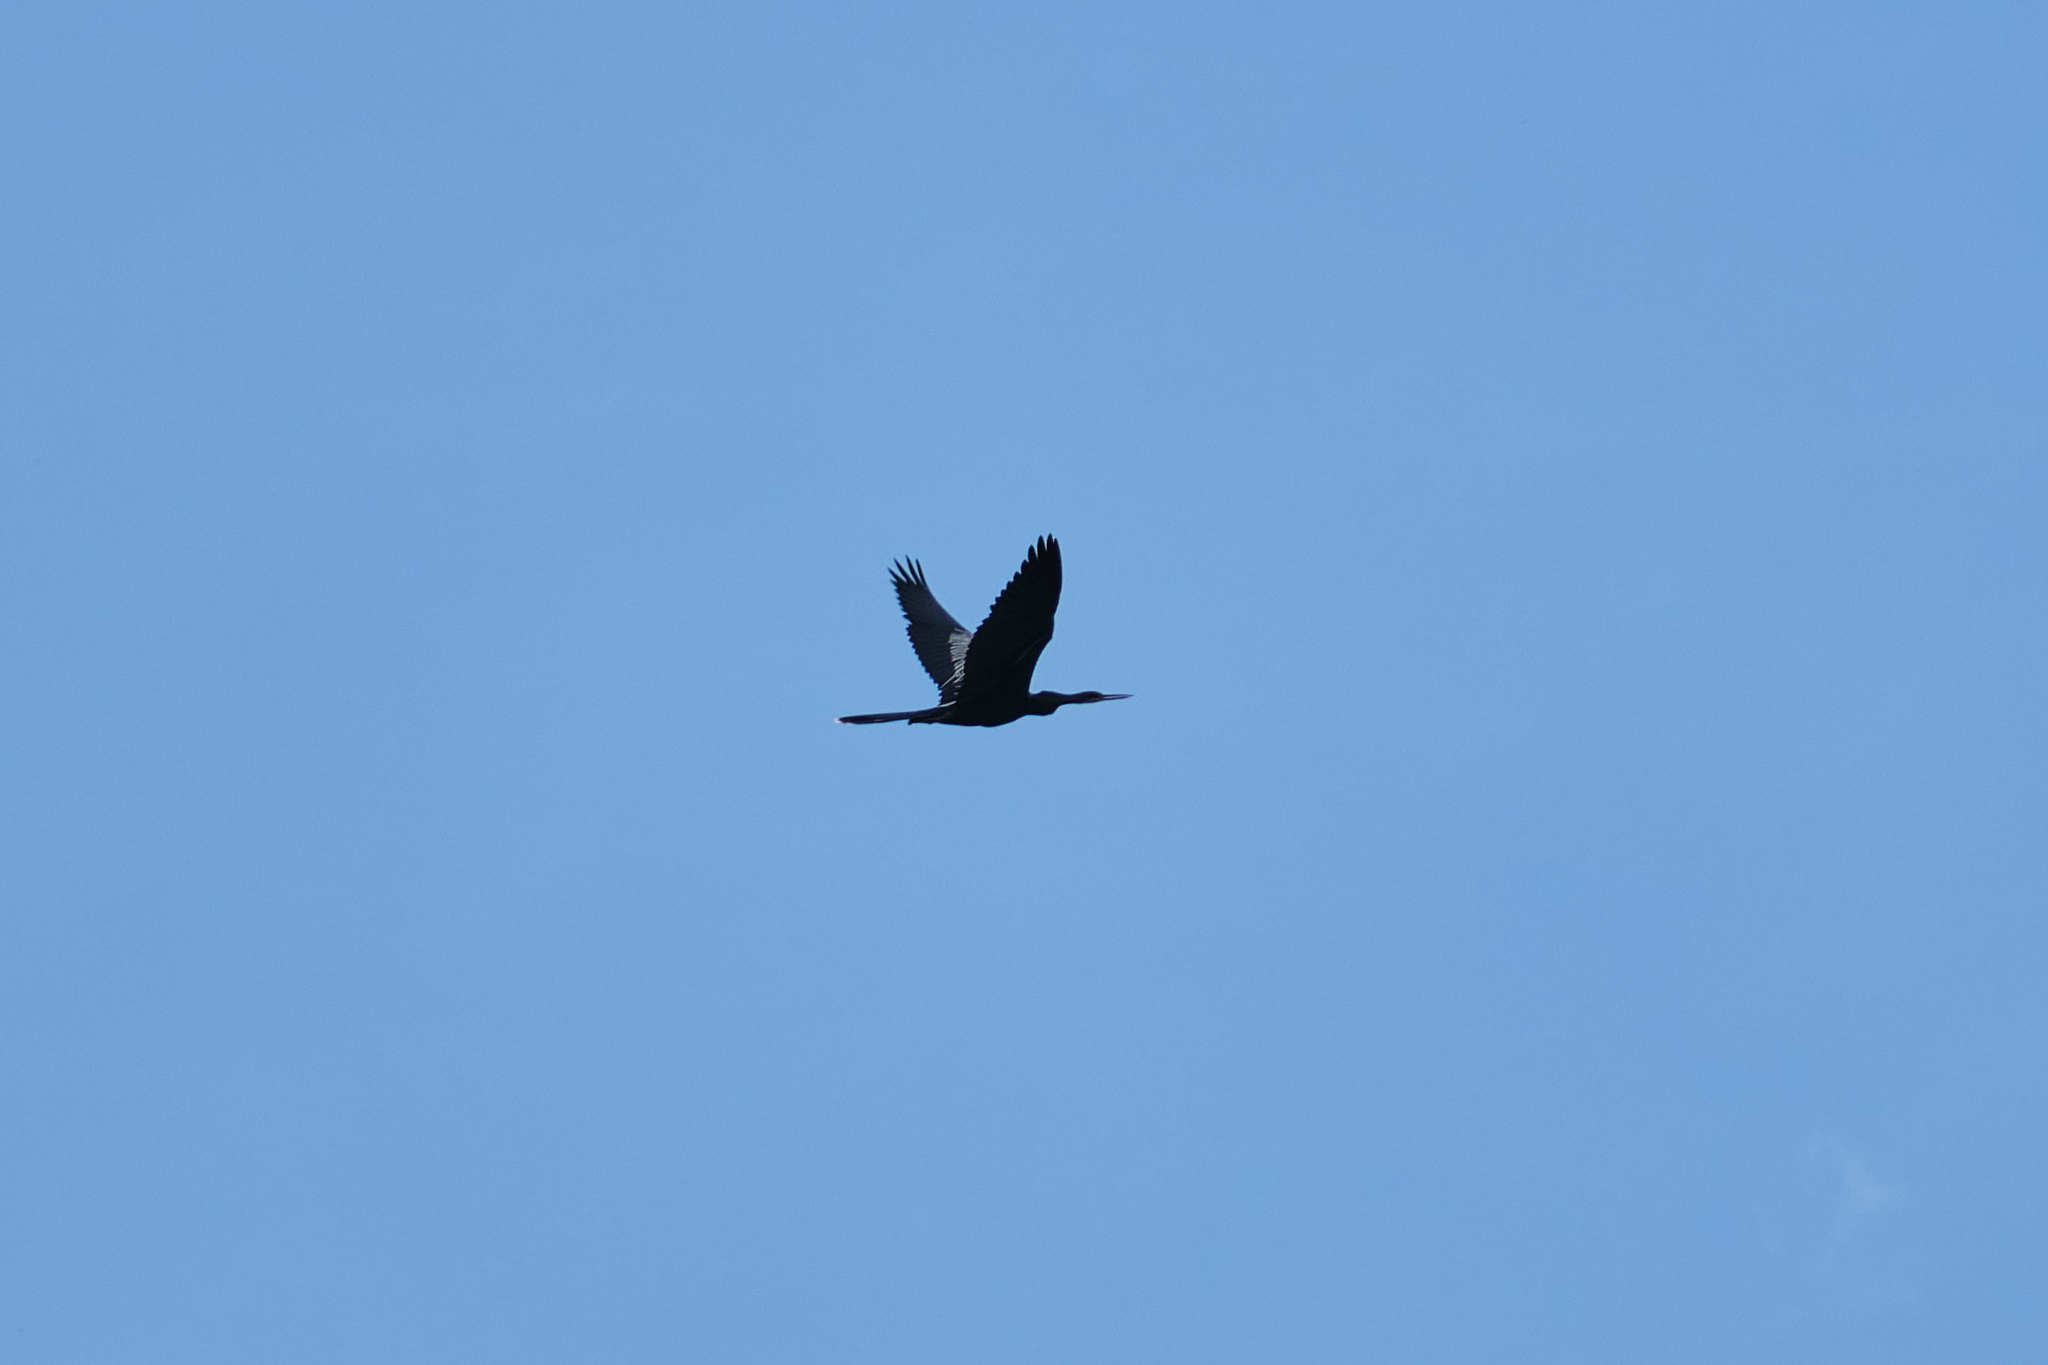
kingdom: Animalia
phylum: Chordata
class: Aves
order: Suliformes
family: Anhingidae
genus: Anhinga
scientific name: Anhinga anhinga
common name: Anhinga
